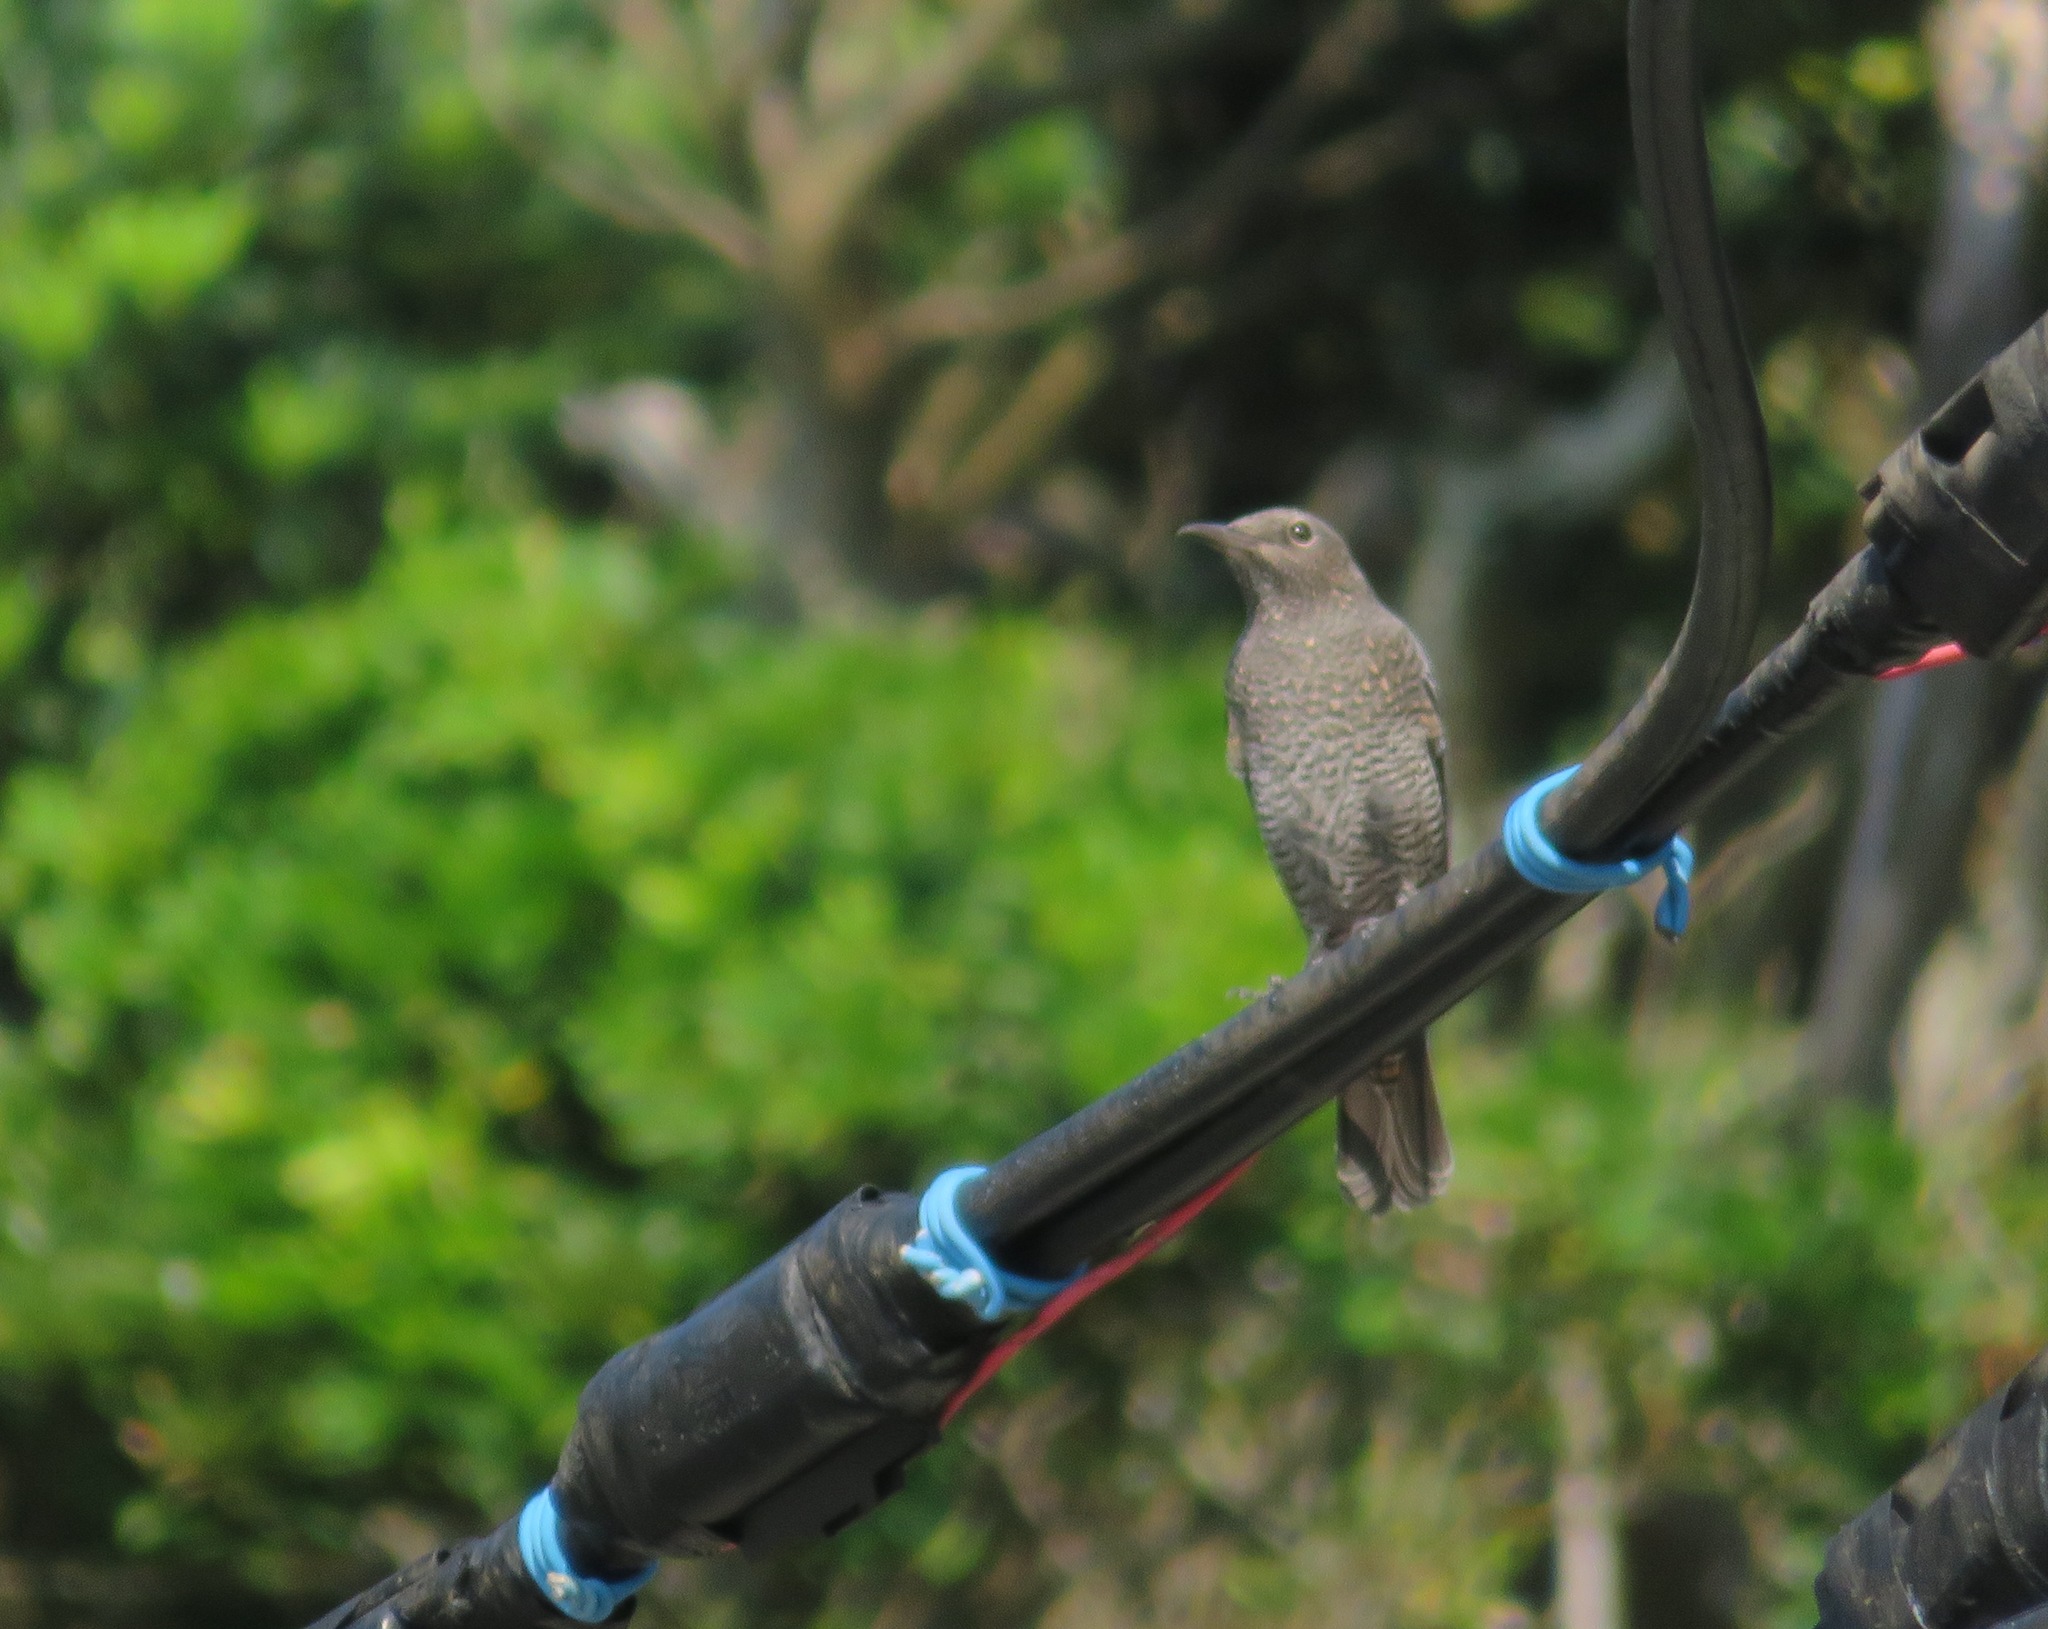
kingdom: Animalia
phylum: Chordata
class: Aves
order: Passeriformes
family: Muscicapidae
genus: Monticola
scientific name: Monticola solitarius
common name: Blue rock thrush
